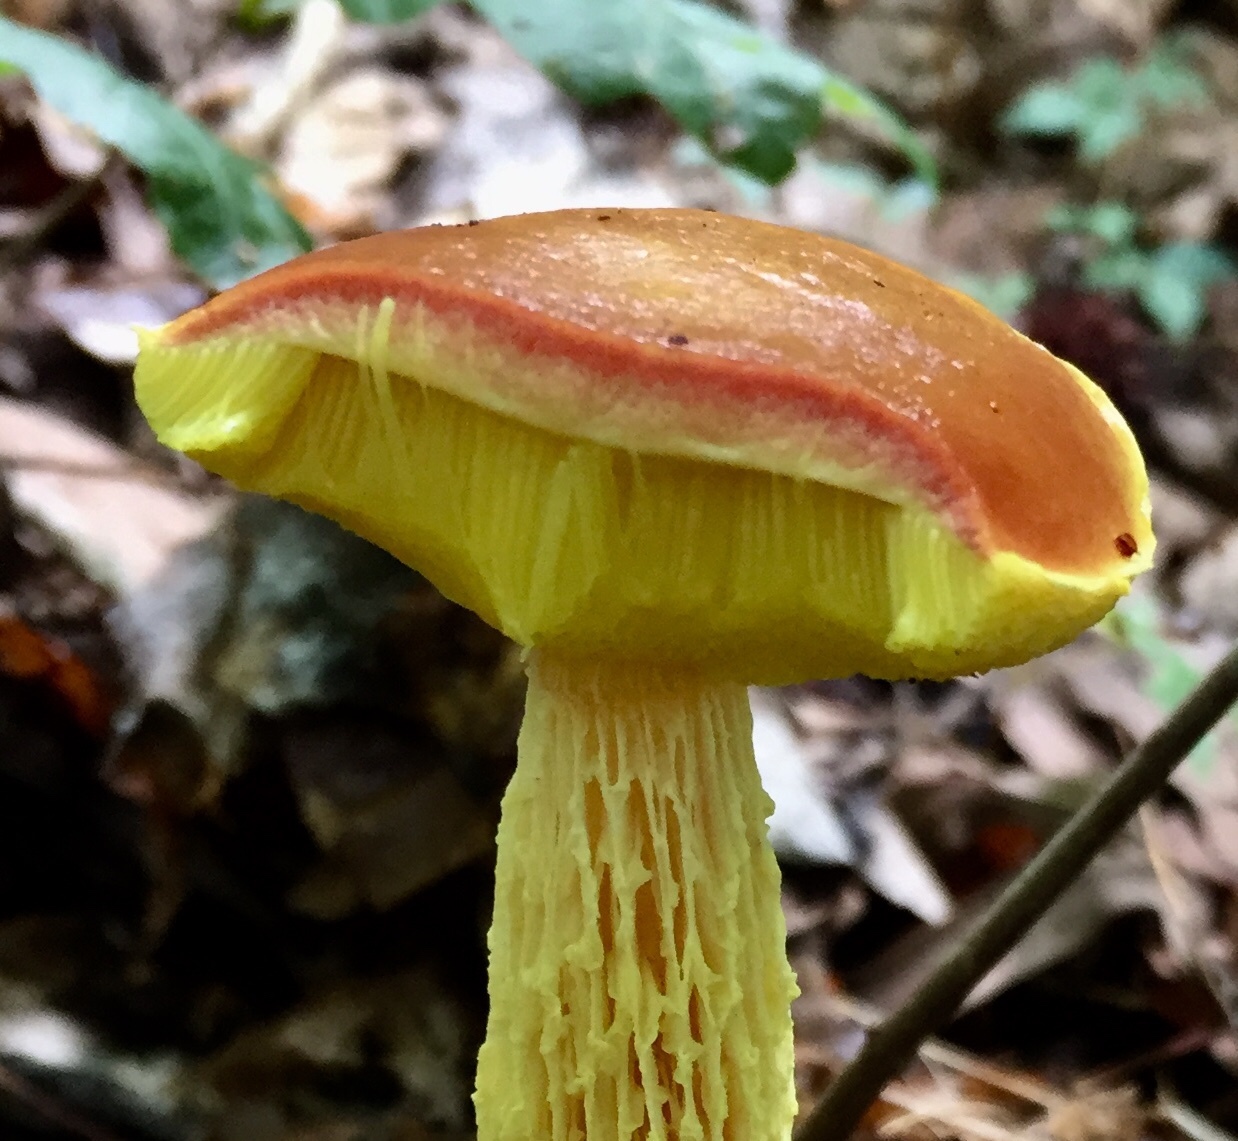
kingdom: Fungi
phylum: Basidiomycota
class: Agaricomycetes
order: Boletales
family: Boletaceae
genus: Aureoboletus
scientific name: Aureoboletus betula
